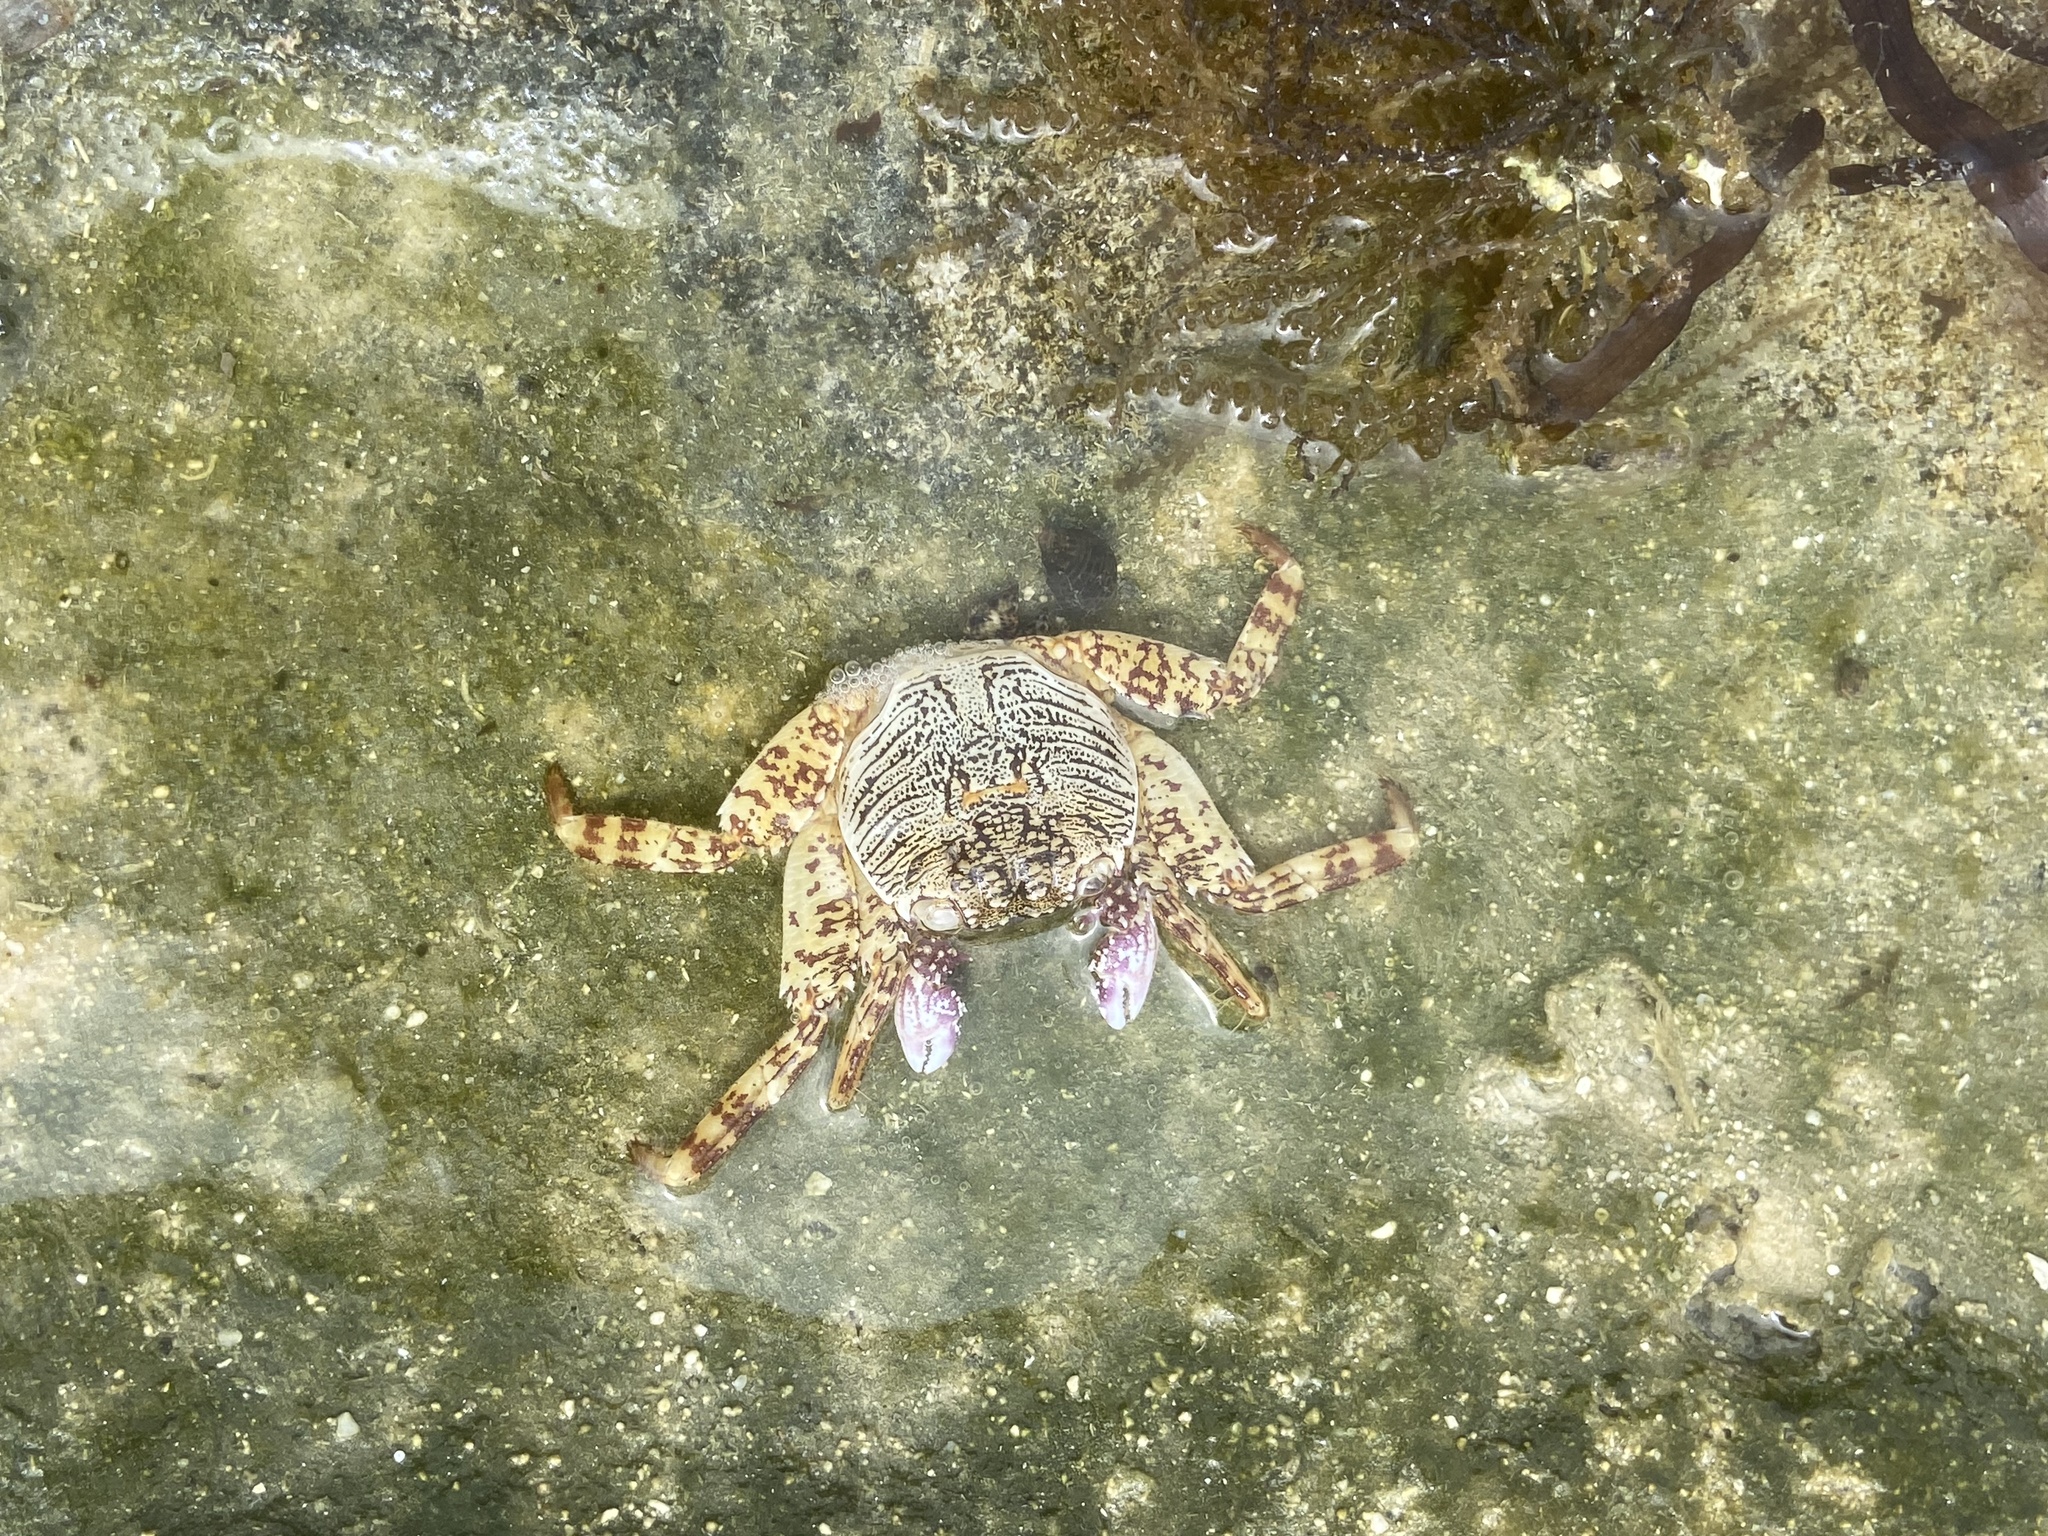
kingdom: Animalia
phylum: Arthropoda
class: Malacostraca
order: Decapoda
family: Grapsidae
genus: Grapsus
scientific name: Grapsus albolineatus
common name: Mottled lightfoot crab
